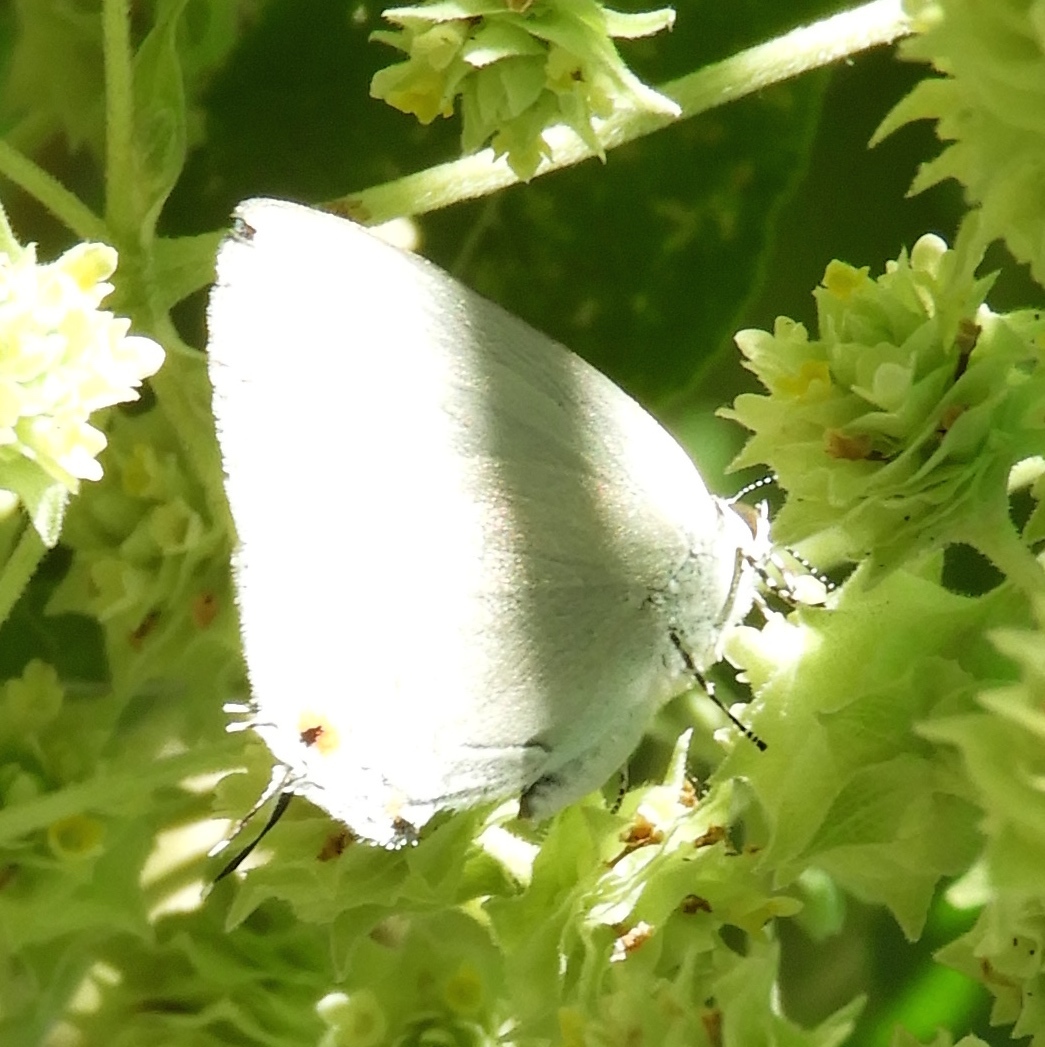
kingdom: Animalia
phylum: Arthropoda
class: Insecta
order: Lepidoptera
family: Lycaenidae
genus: Strephonota
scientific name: Strephonota tephraeus
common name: Pearly-gray hairstreak
